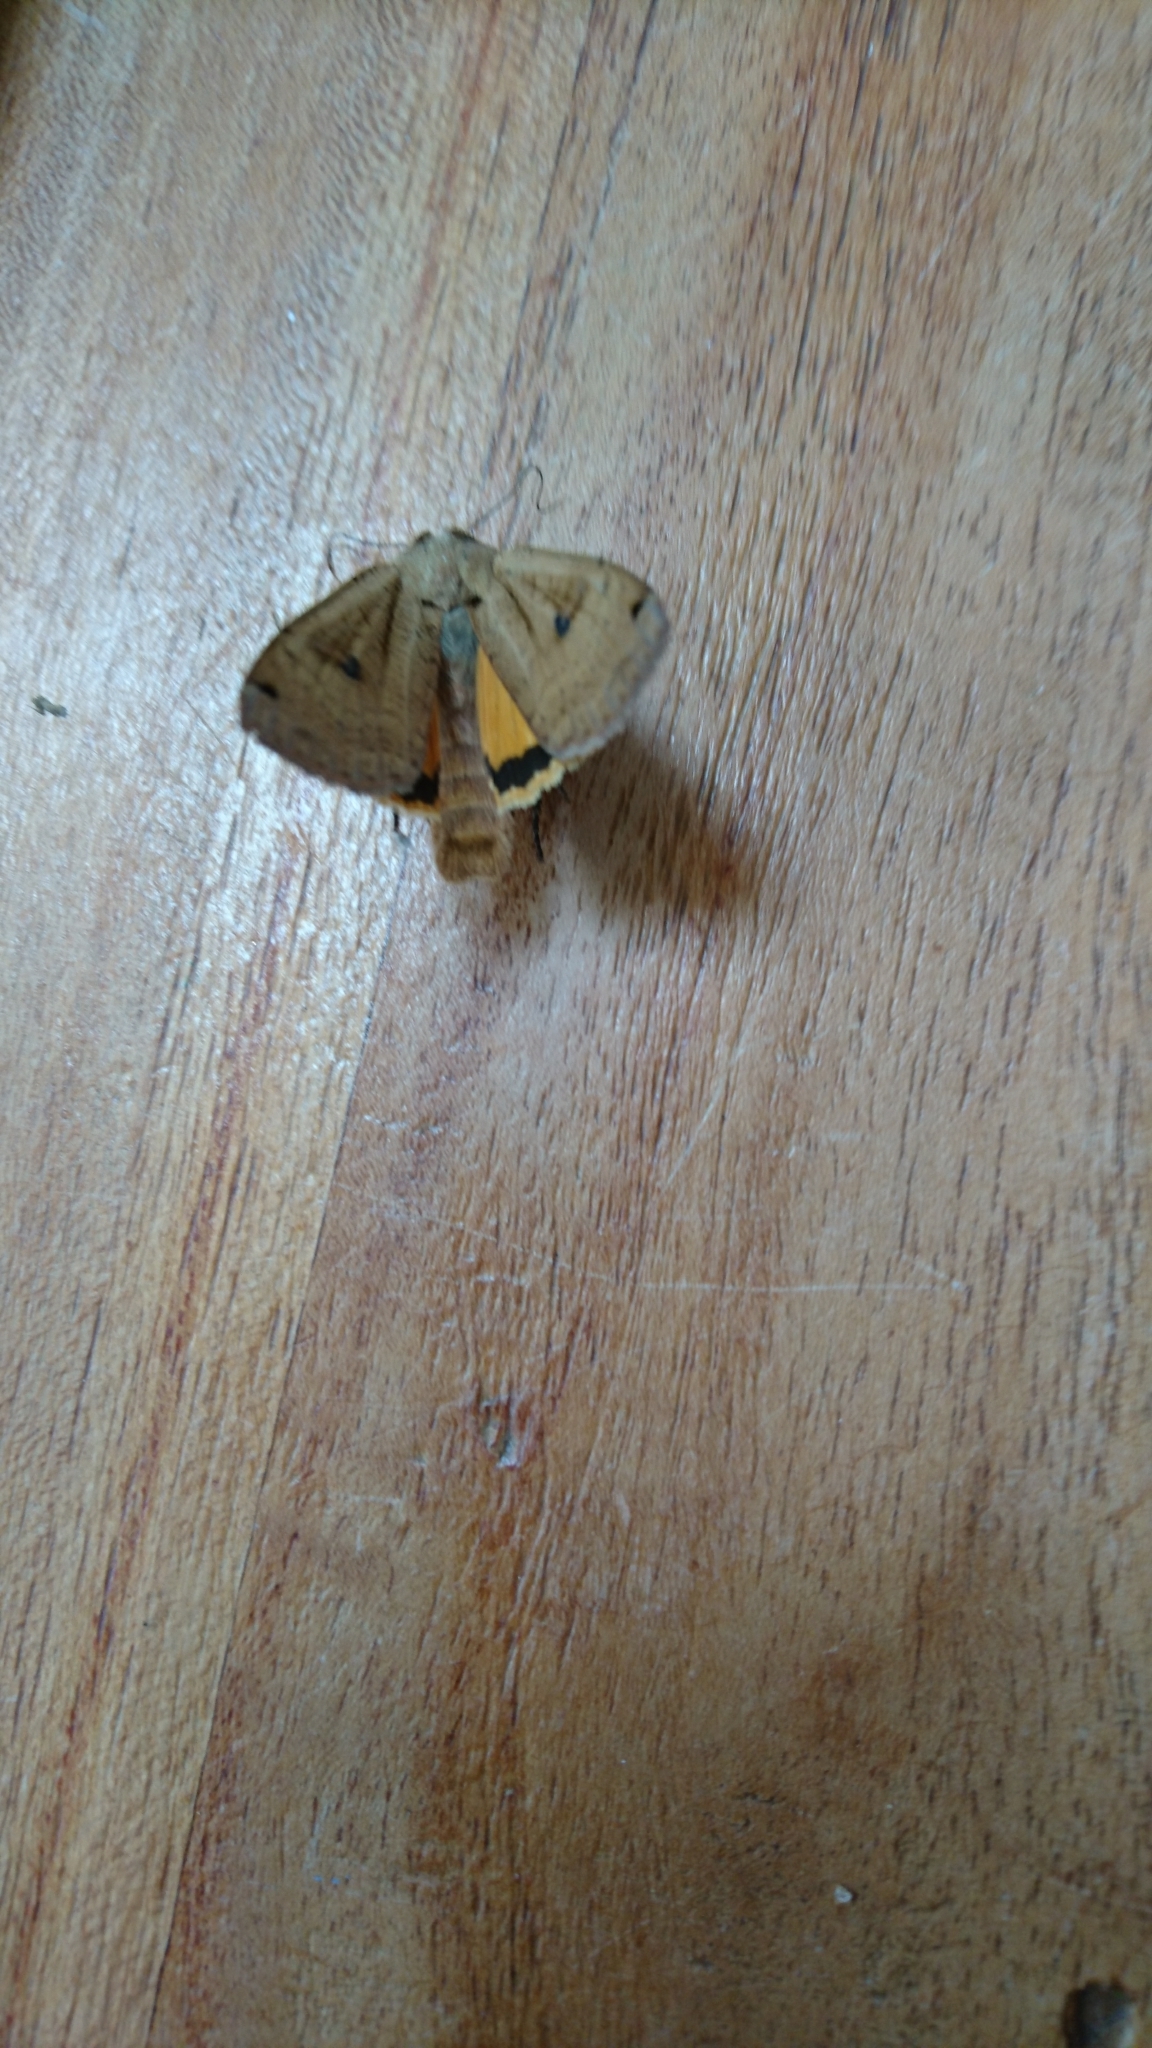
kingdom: Animalia
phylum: Arthropoda
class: Insecta
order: Lepidoptera
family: Noctuidae
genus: Noctua
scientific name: Noctua pronuba
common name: Large yellow underwing
